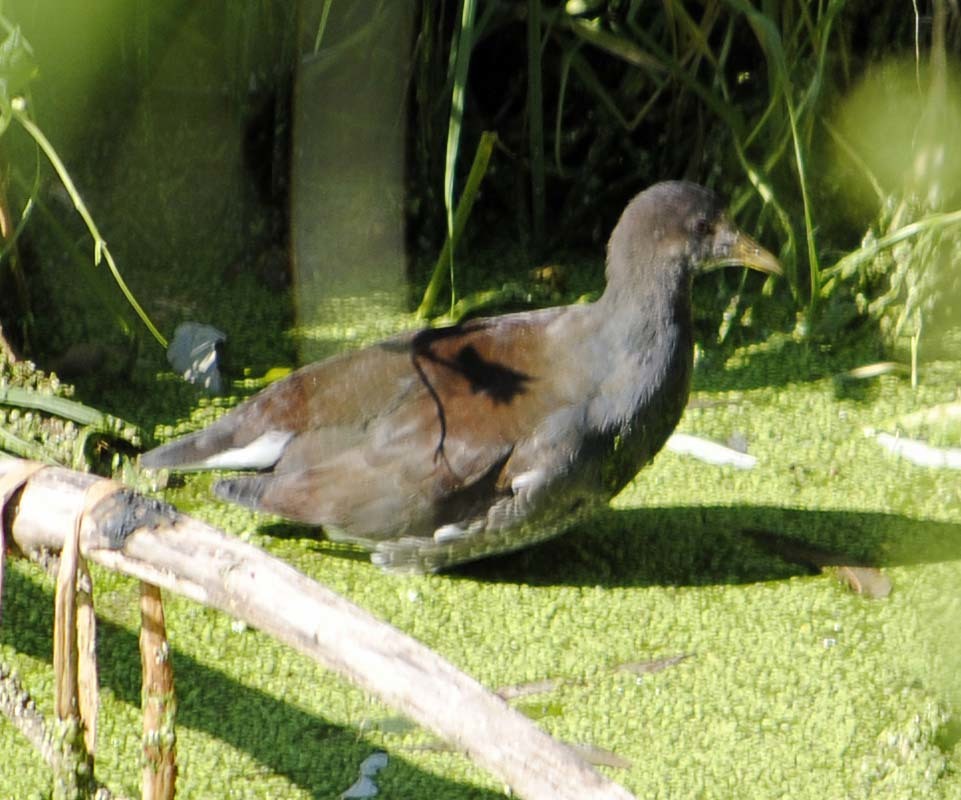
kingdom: Animalia
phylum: Chordata
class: Aves
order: Gruiformes
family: Rallidae
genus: Gallinula
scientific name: Gallinula chloropus
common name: Common moorhen
